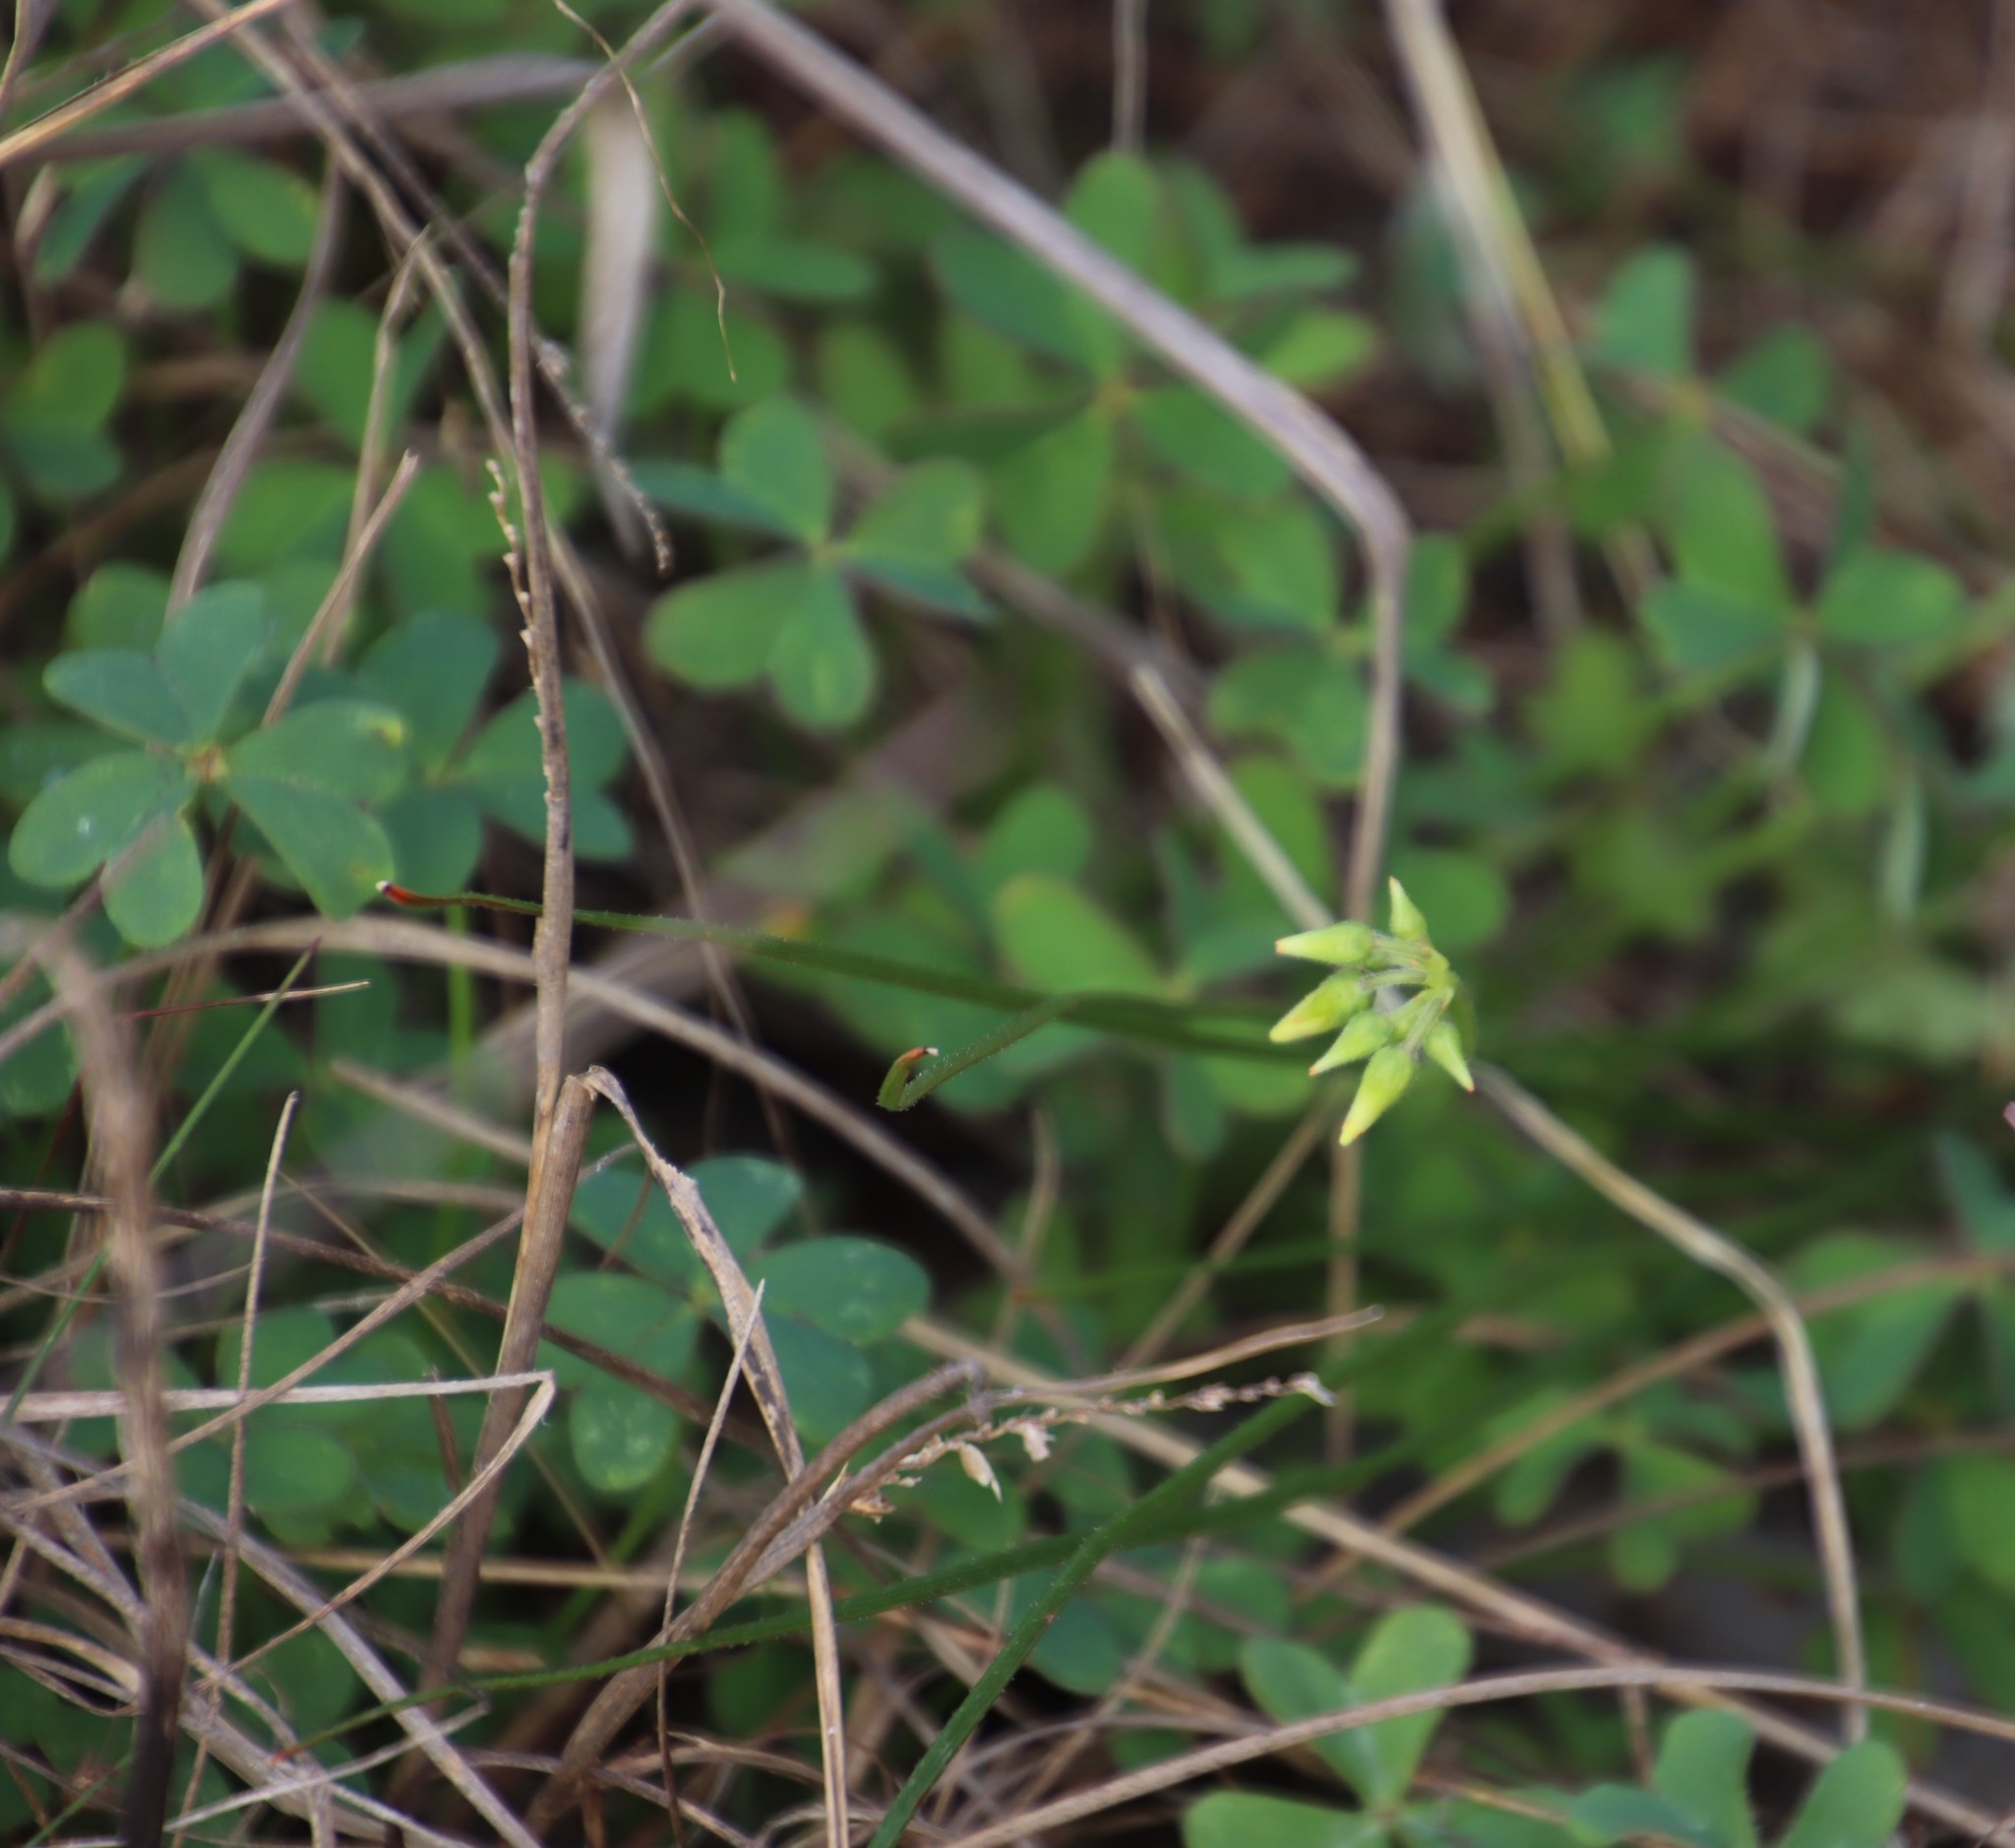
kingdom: Plantae
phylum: Tracheophyta
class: Magnoliopsida
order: Oxalidales
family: Oxalidaceae
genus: Oxalis
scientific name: Oxalis pes-caprae
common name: Bermuda-buttercup
